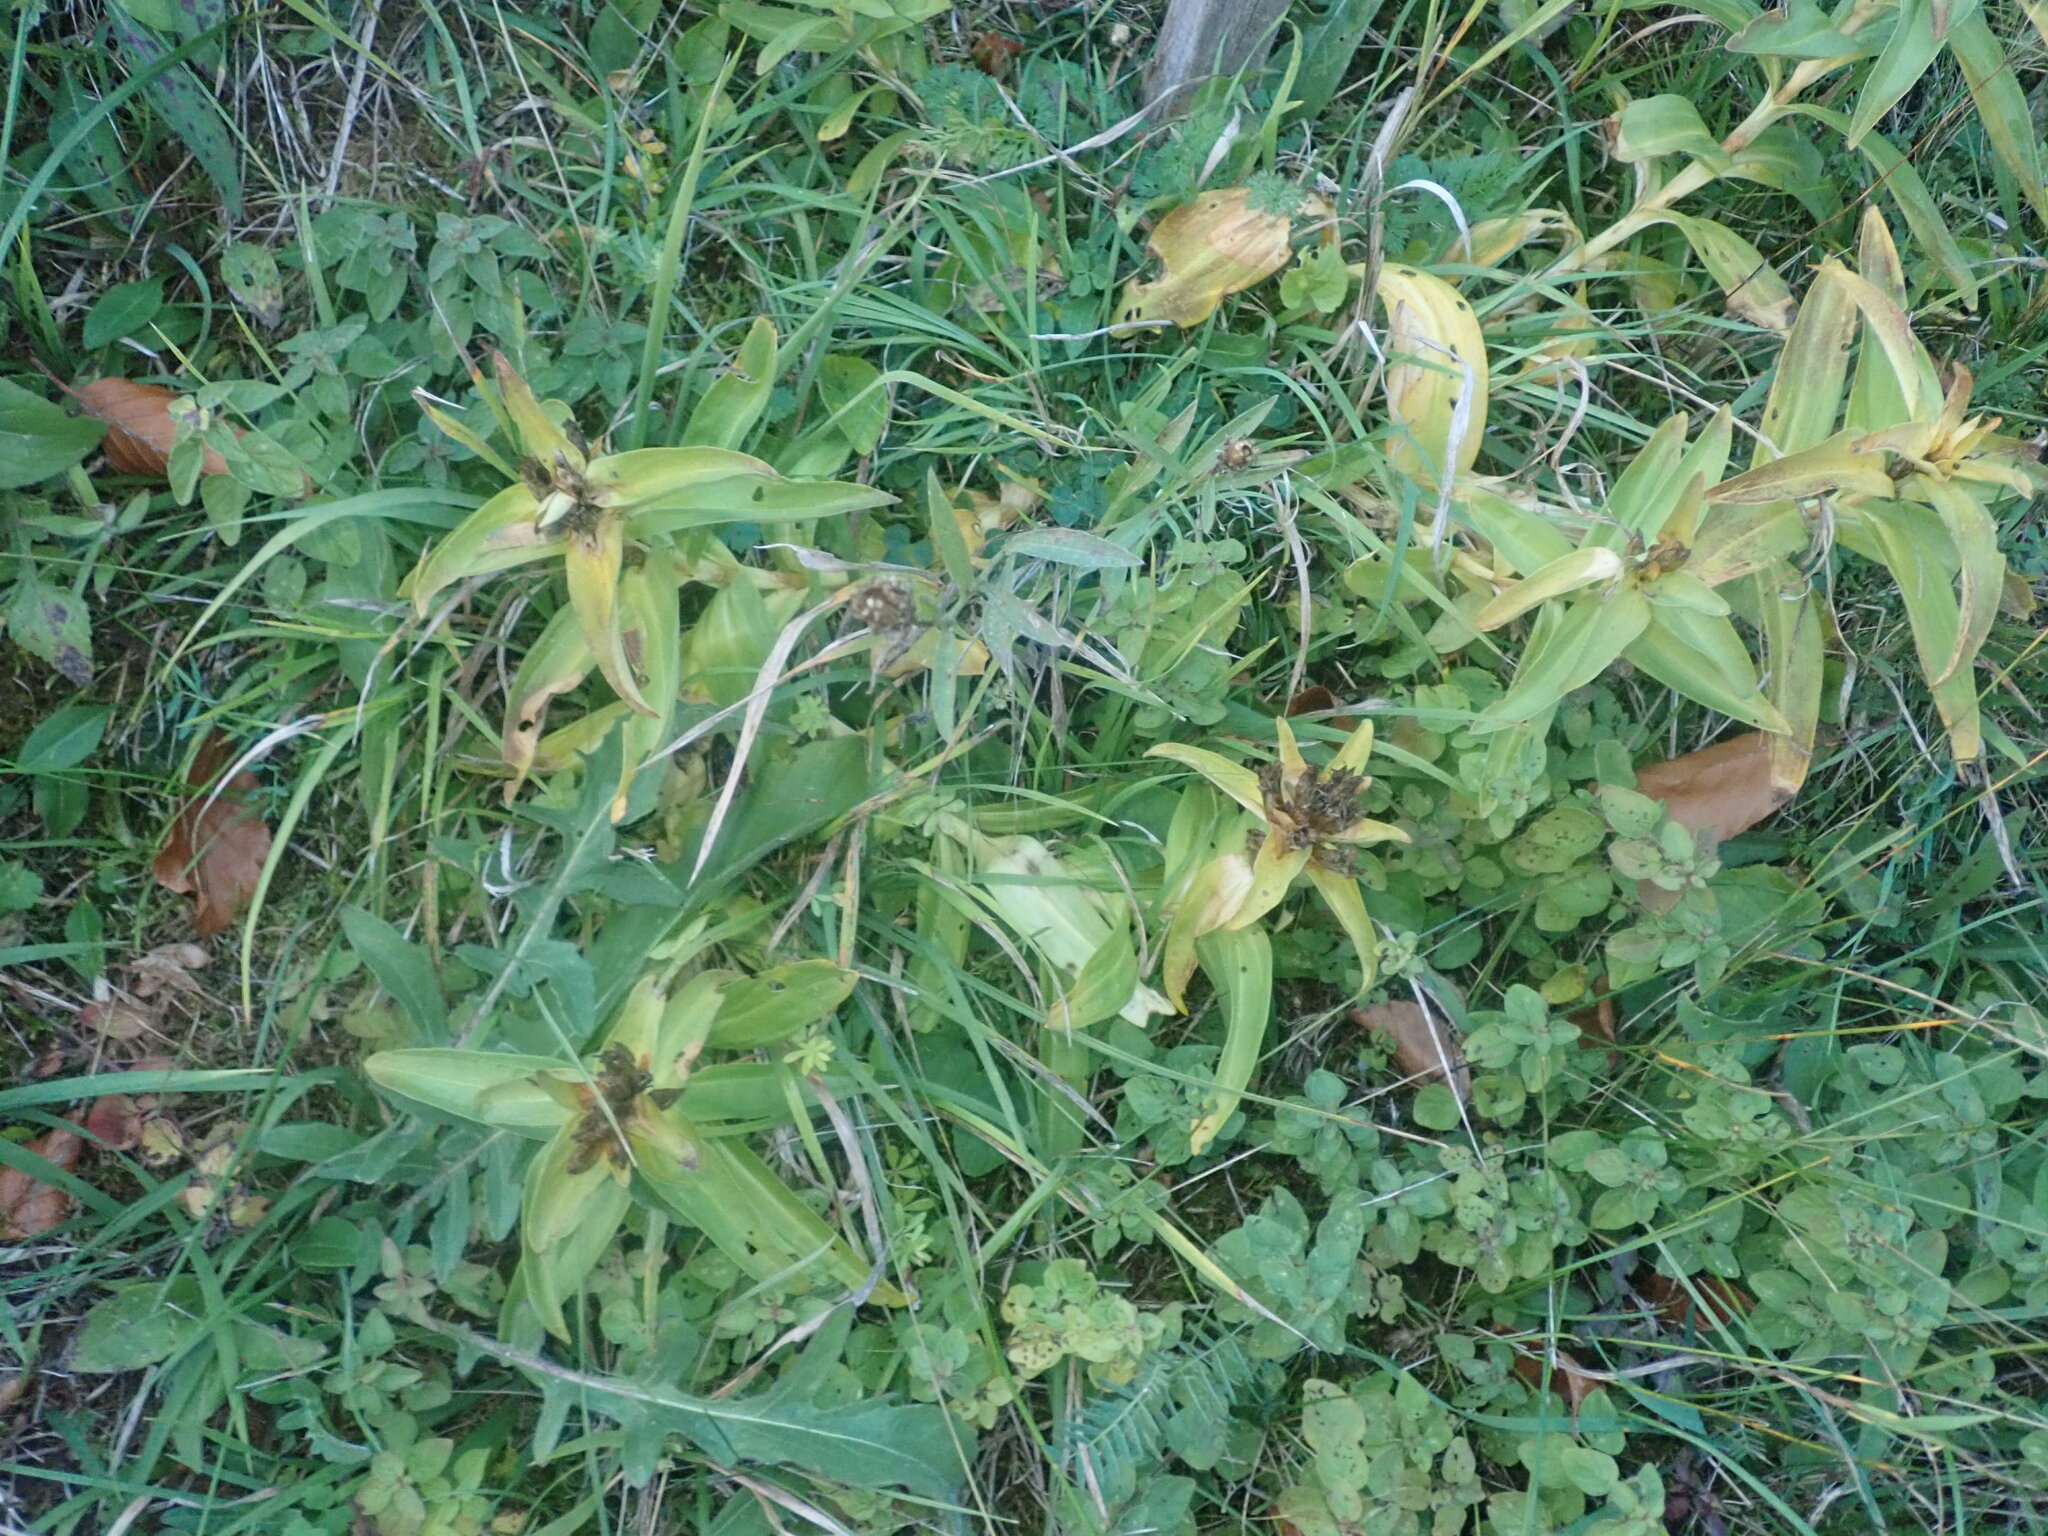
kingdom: Plantae
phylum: Tracheophyta
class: Magnoliopsida
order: Gentianales
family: Gentianaceae
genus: Gentiana
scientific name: Gentiana cruciata
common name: Cross gentian
